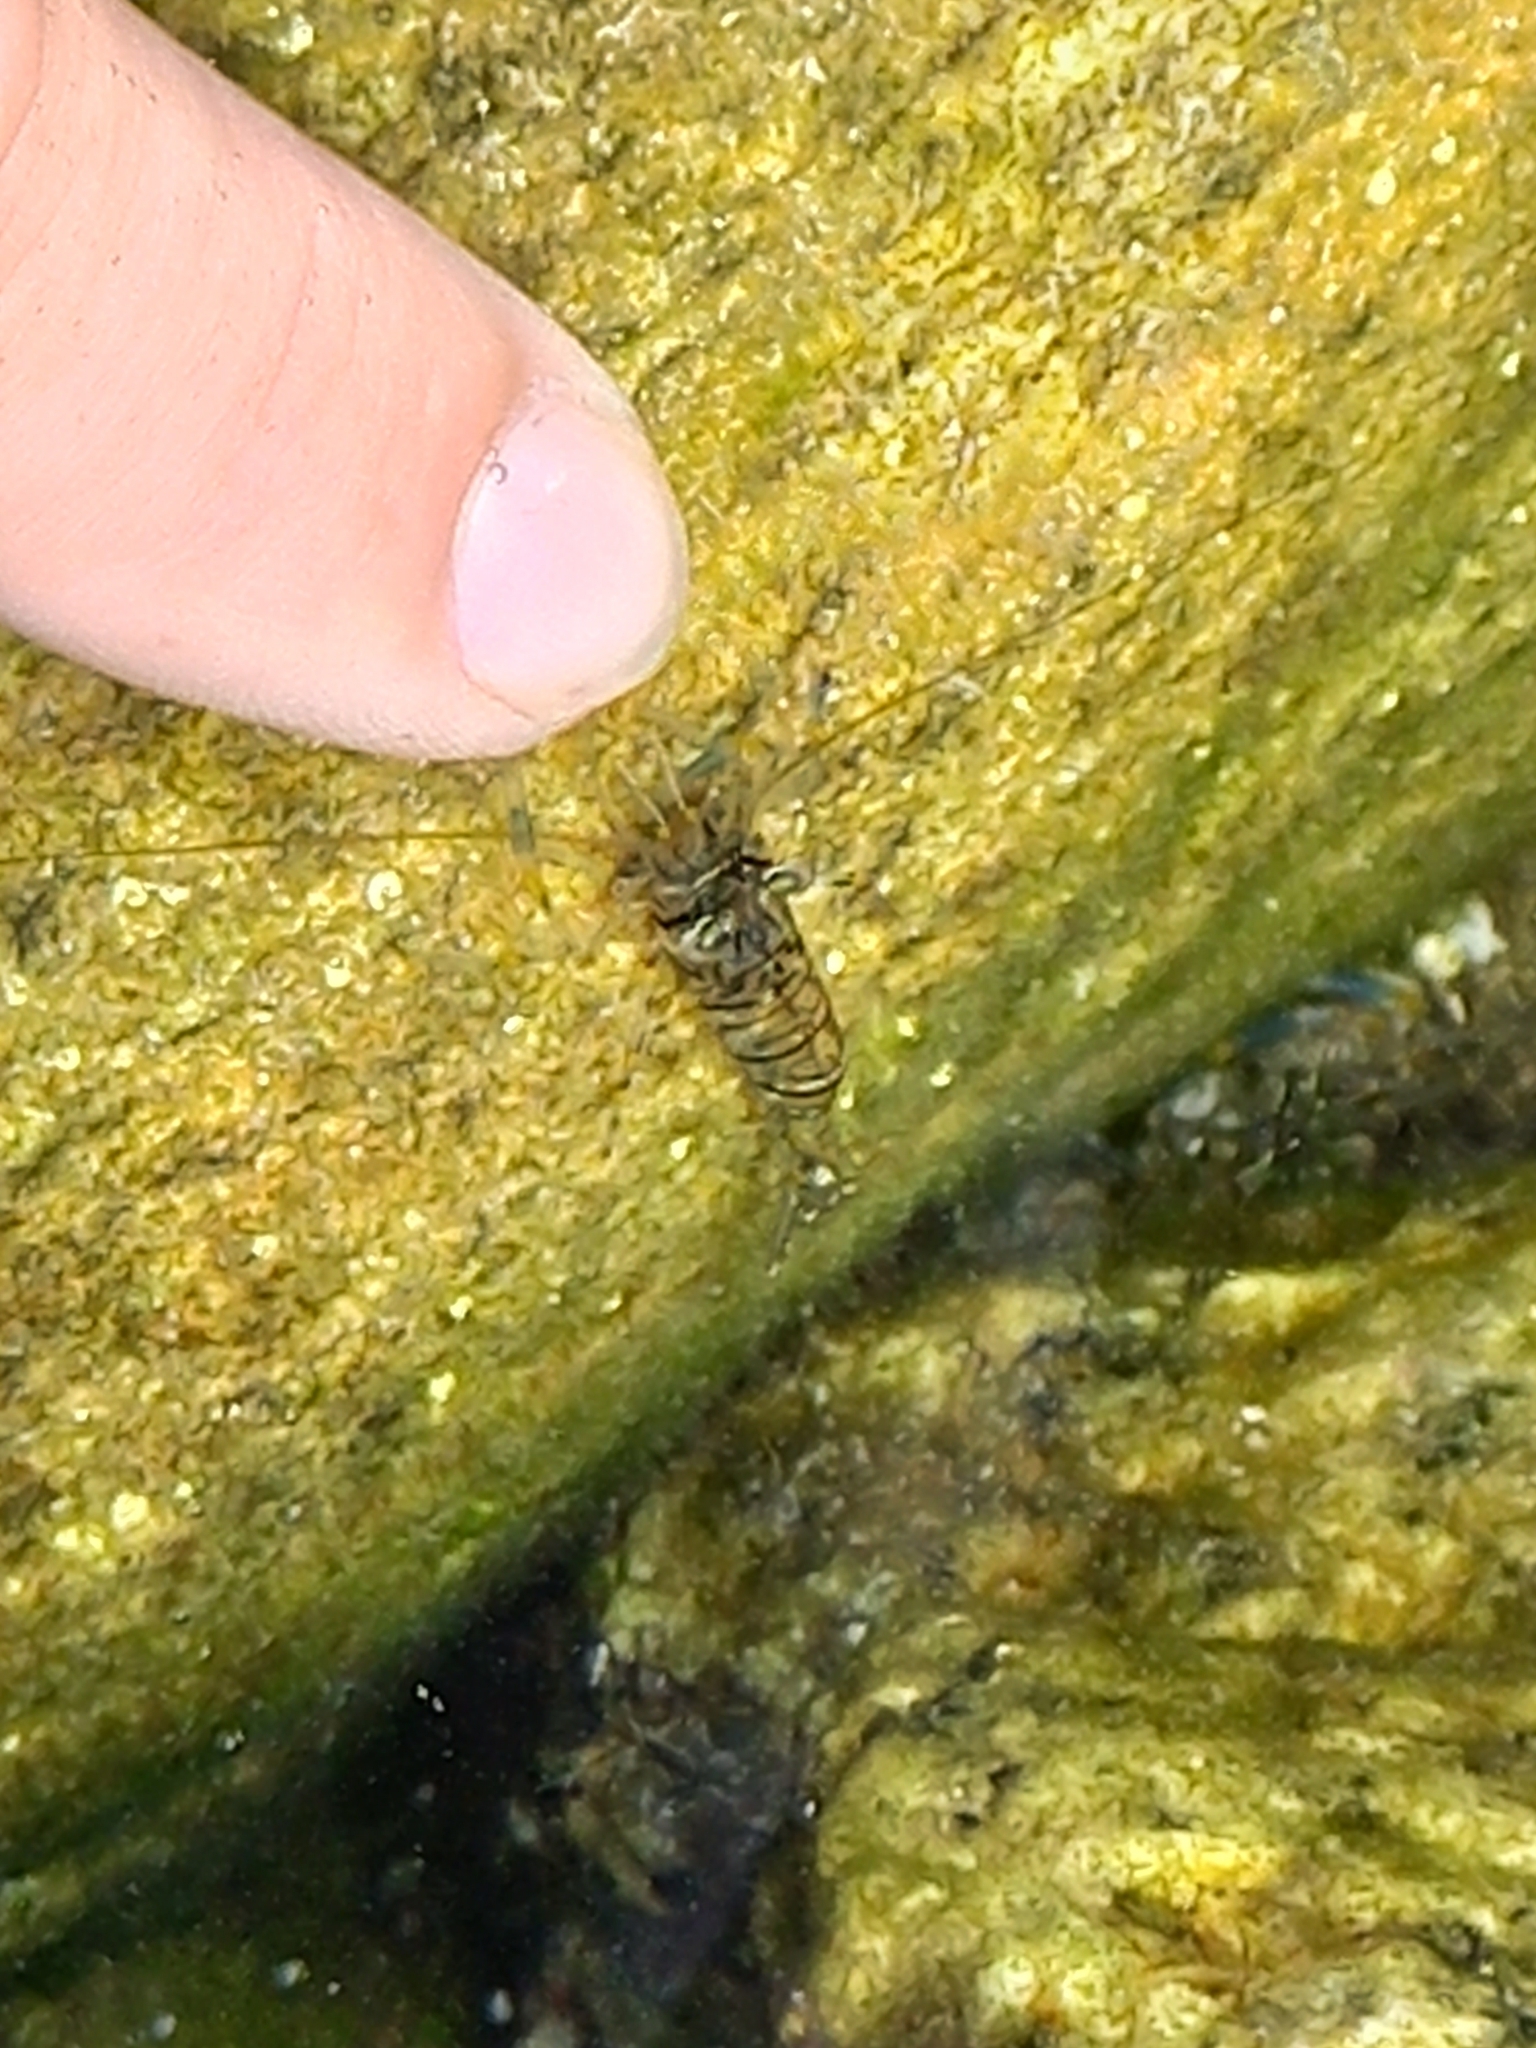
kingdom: Animalia
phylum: Arthropoda
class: Malacostraca
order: Decapoda
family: Palaemonidae
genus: Palaemon
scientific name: Palaemon elegans
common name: Grass prawm
